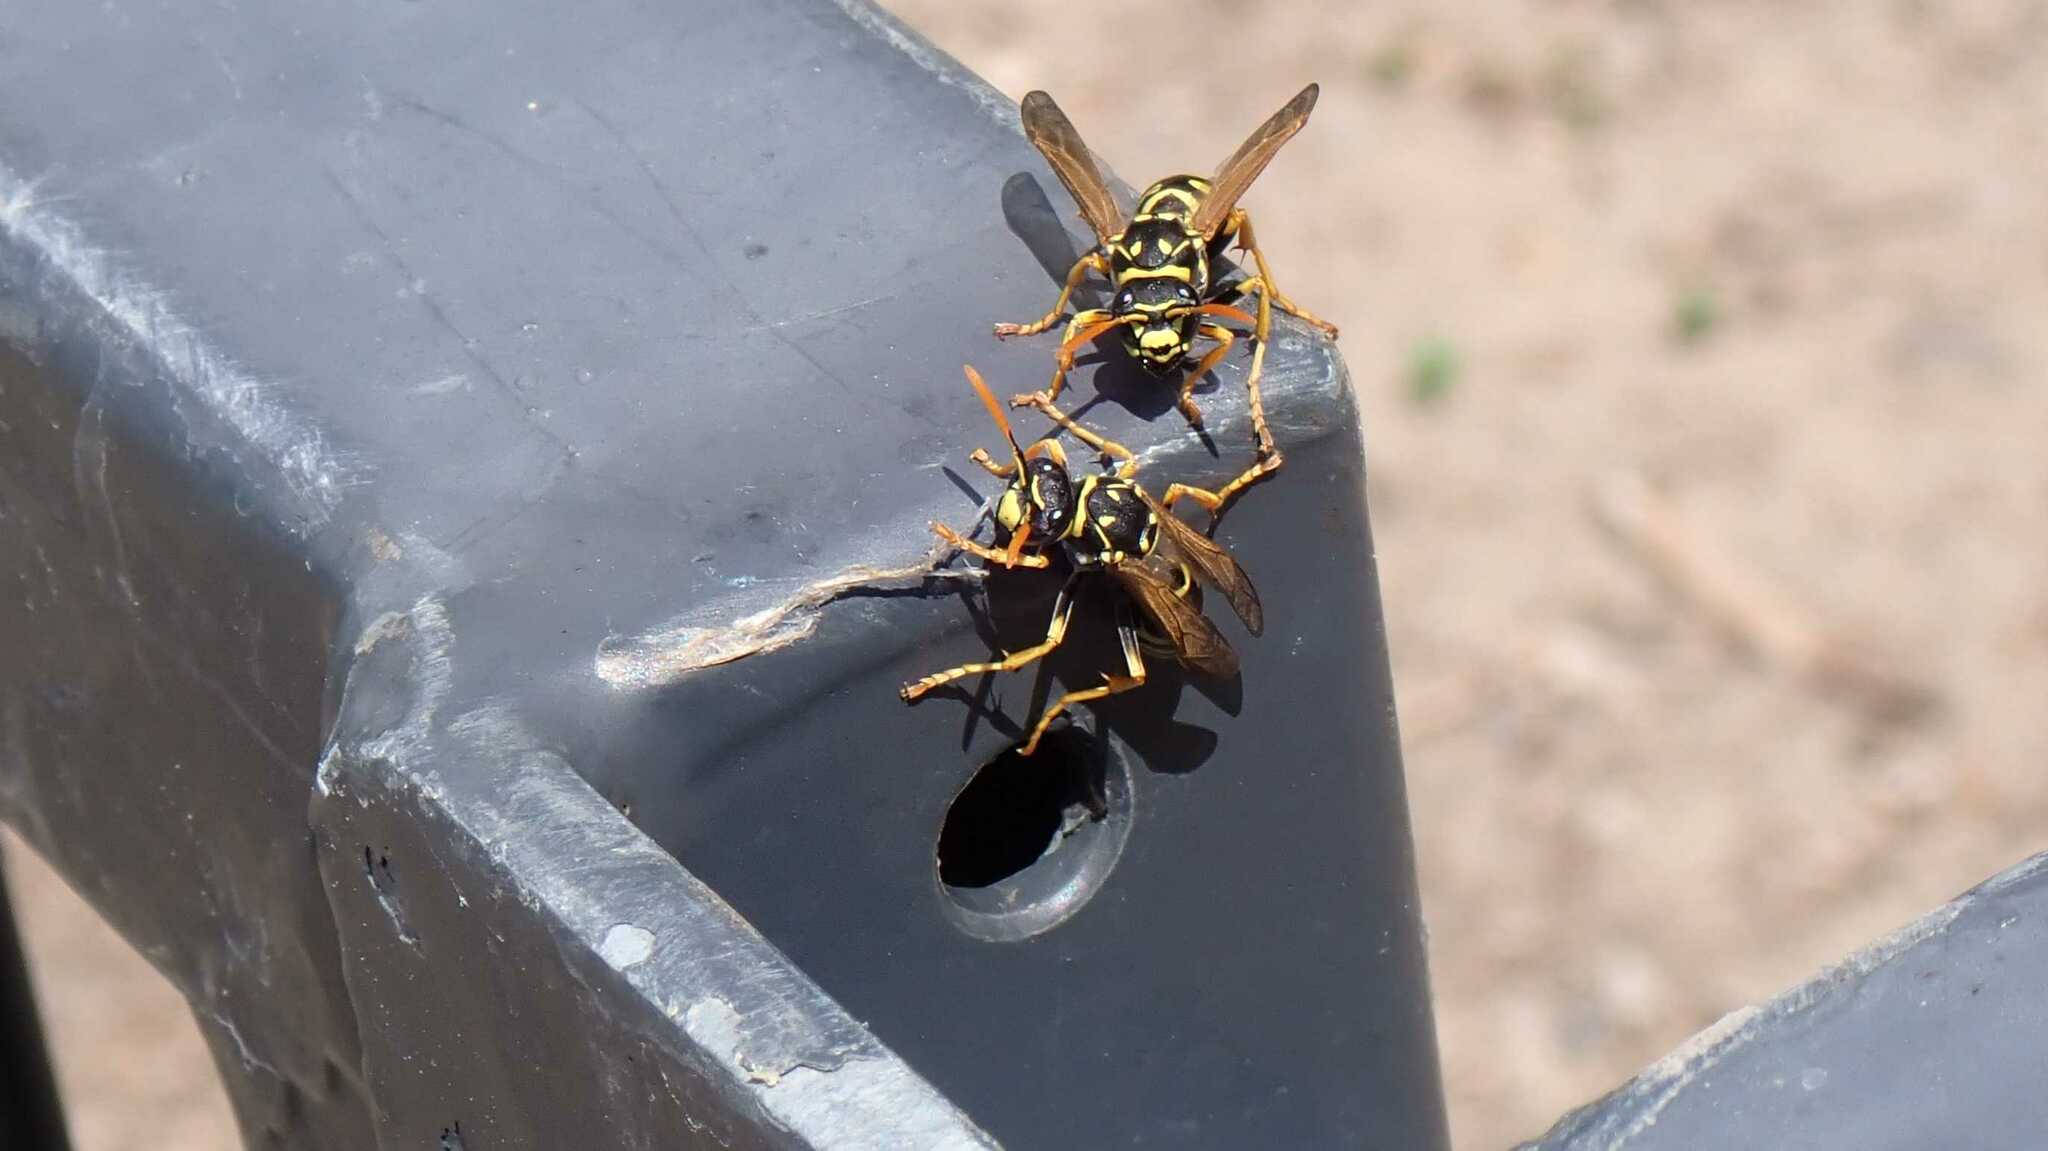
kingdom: Animalia
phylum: Arthropoda
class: Insecta
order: Hymenoptera
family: Eumenidae
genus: Polistes
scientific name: Polistes dominula
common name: Paper wasp
